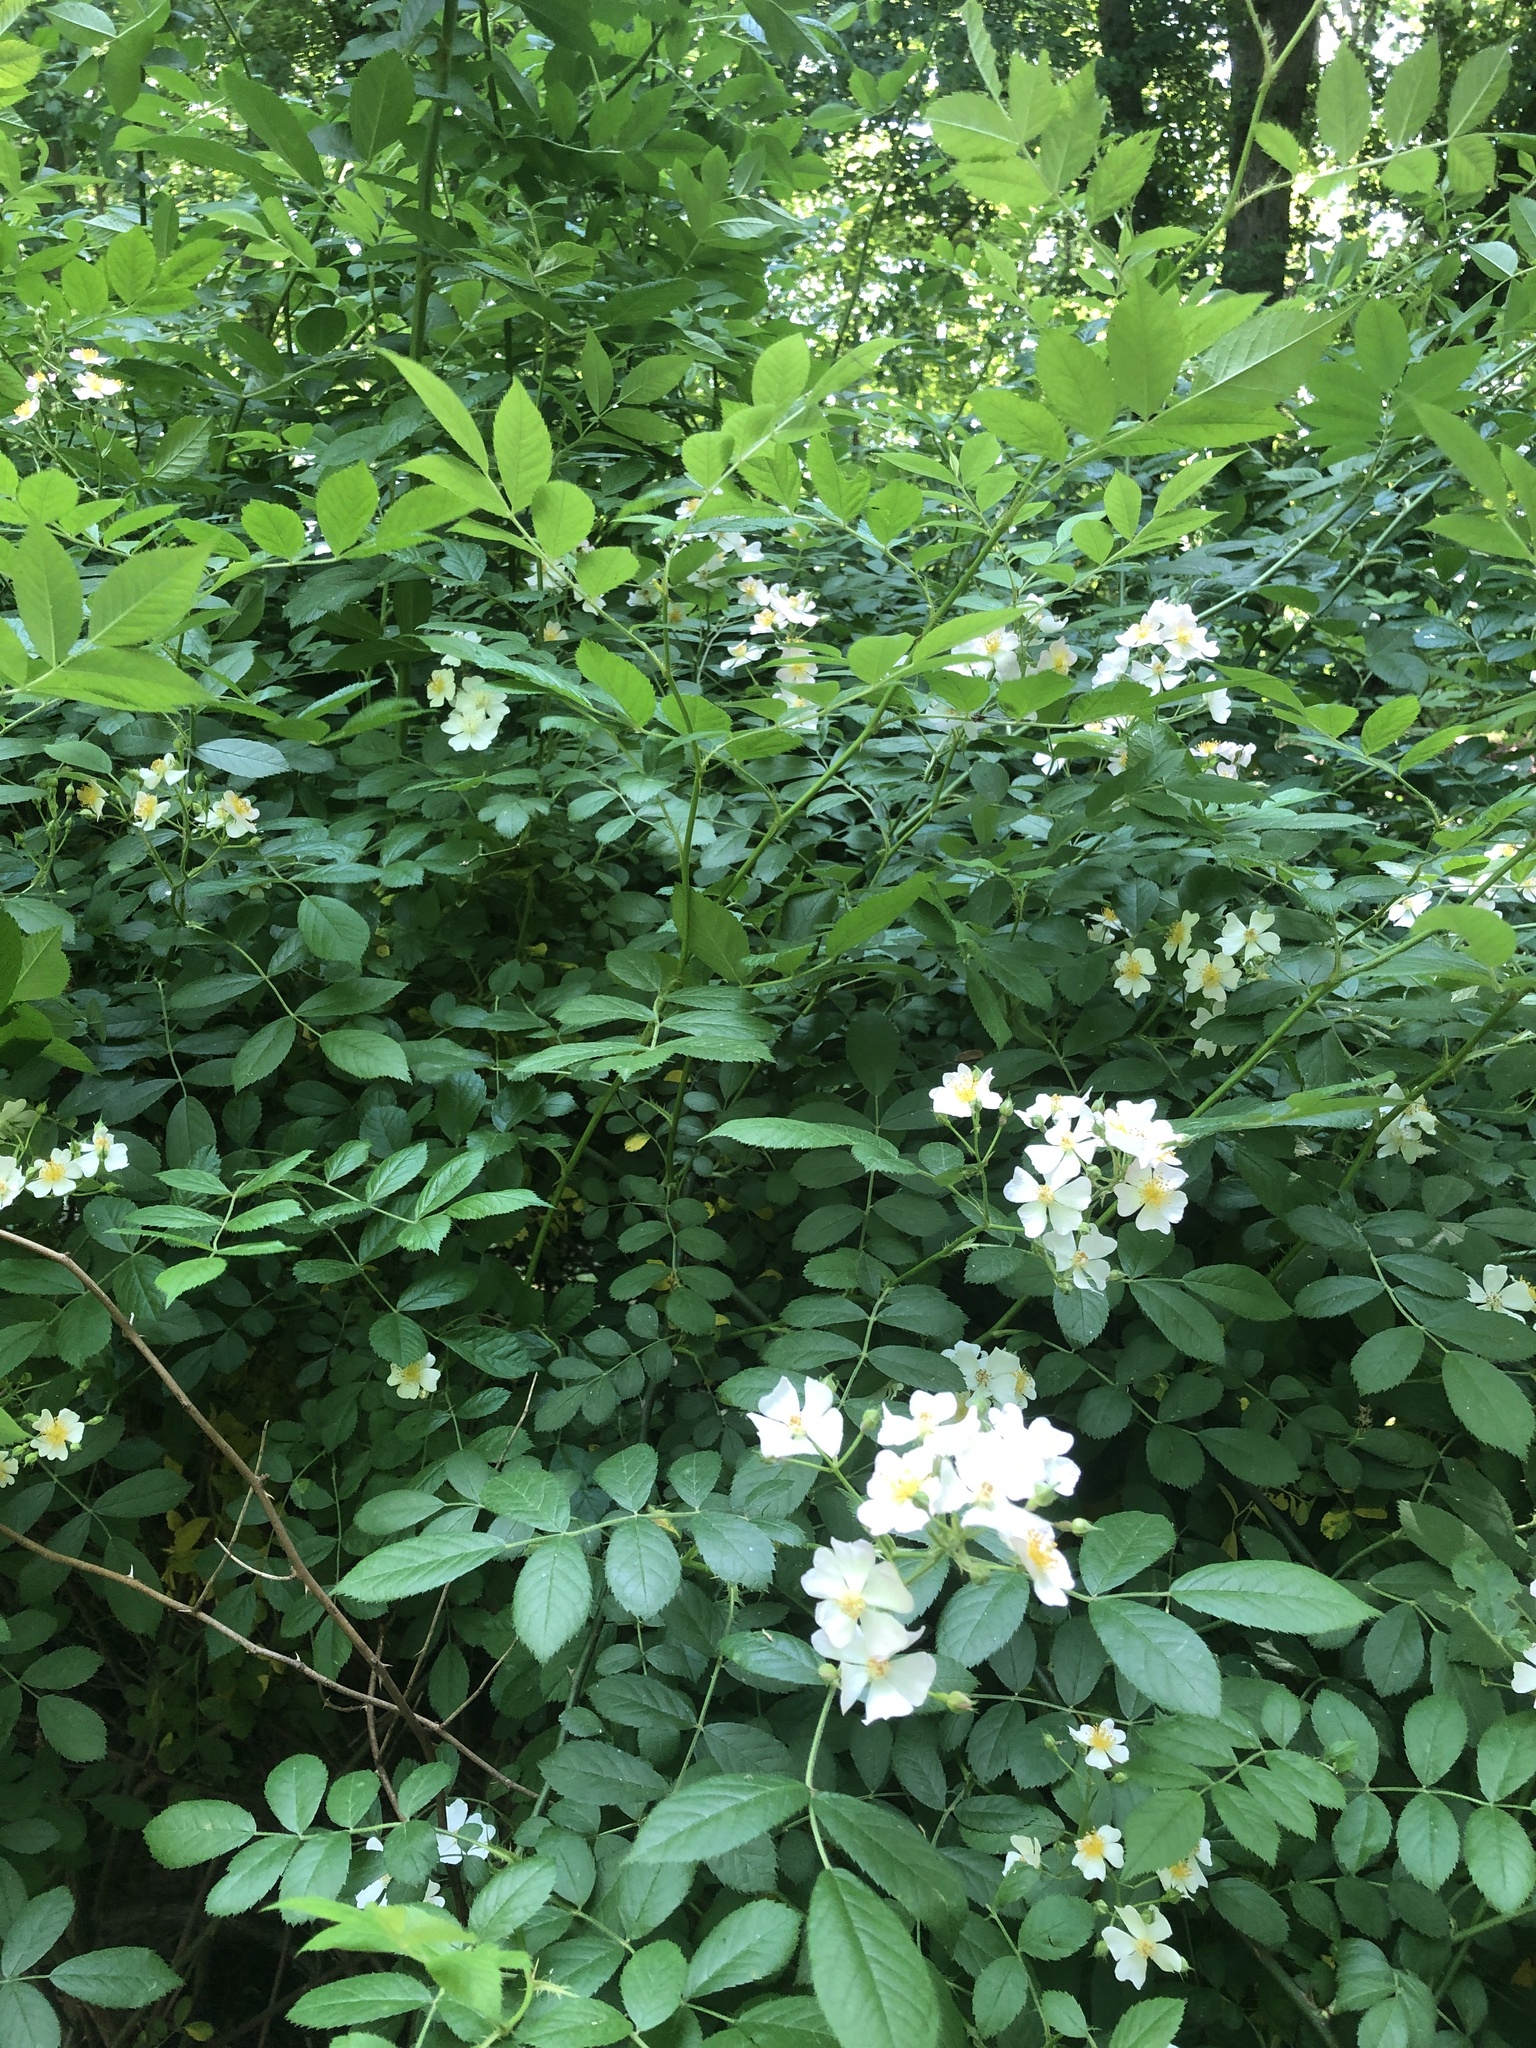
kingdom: Plantae
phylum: Tracheophyta
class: Magnoliopsida
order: Rosales
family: Rosaceae
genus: Rosa
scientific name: Rosa multiflora
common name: Multiflora rose
